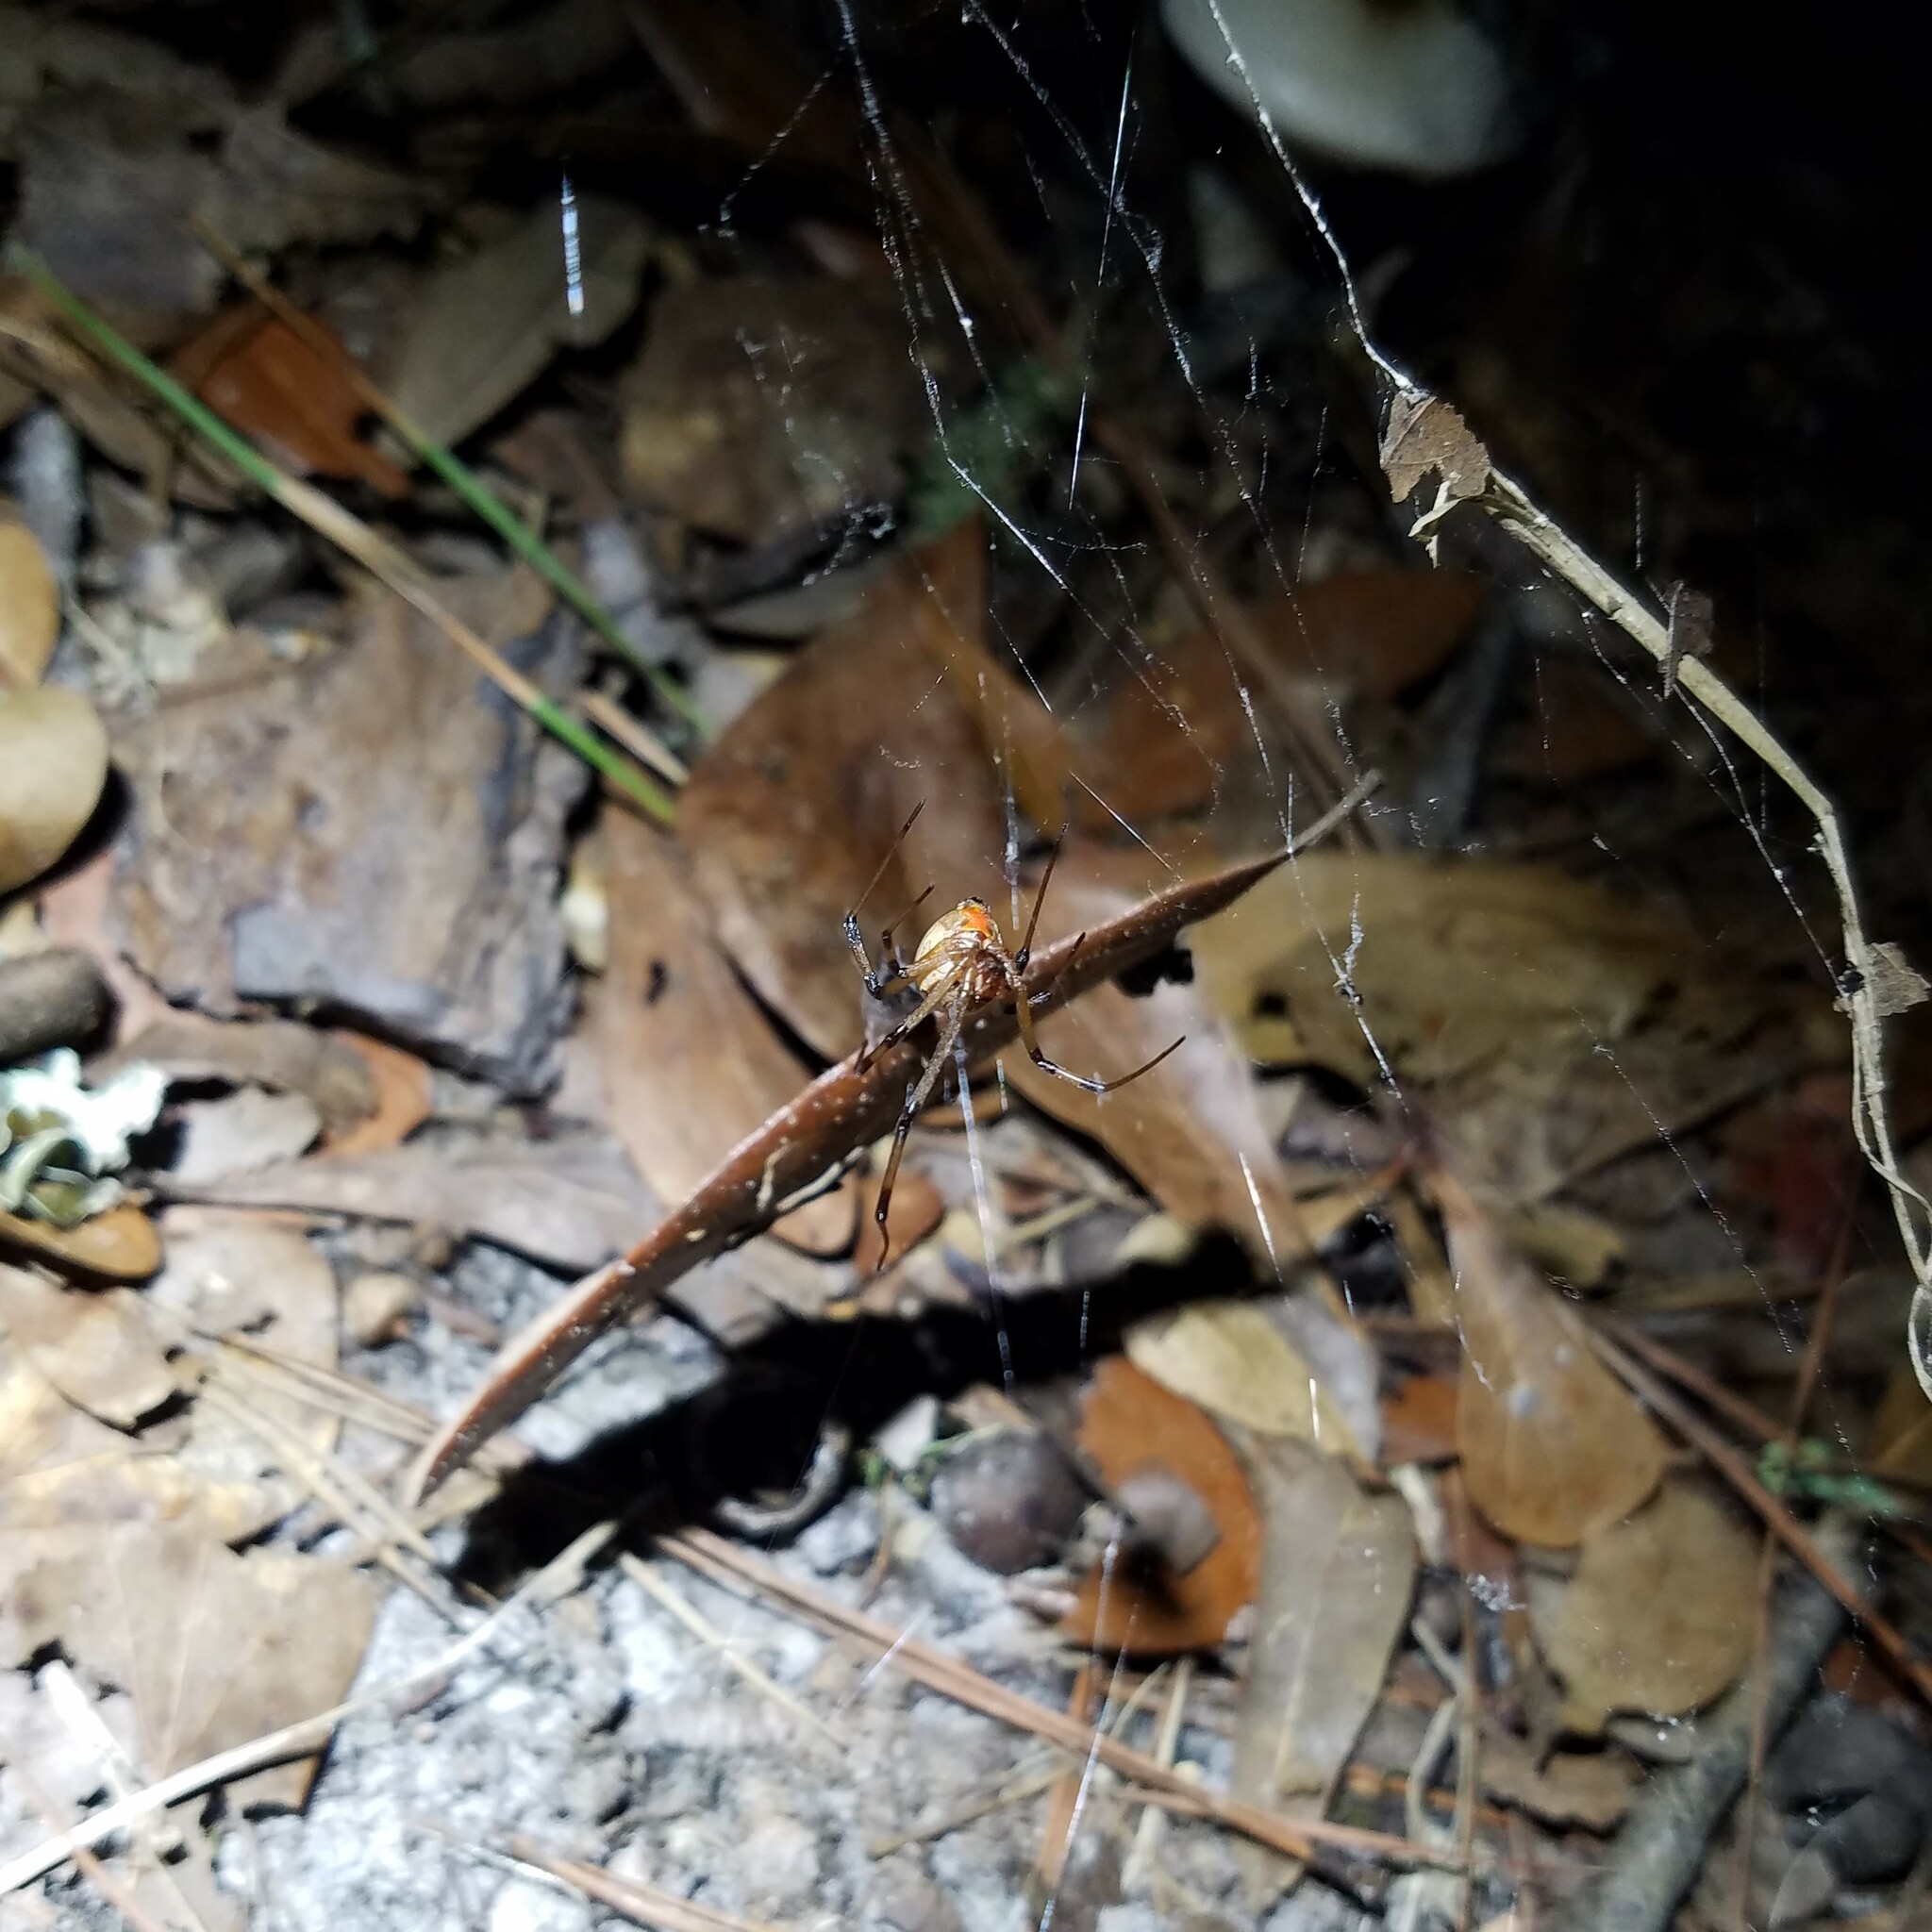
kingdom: Animalia
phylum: Arthropoda
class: Arachnida
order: Araneae
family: Theridiidae
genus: Latrodectus
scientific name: Latrodectus geometricus
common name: Brown widow spider
